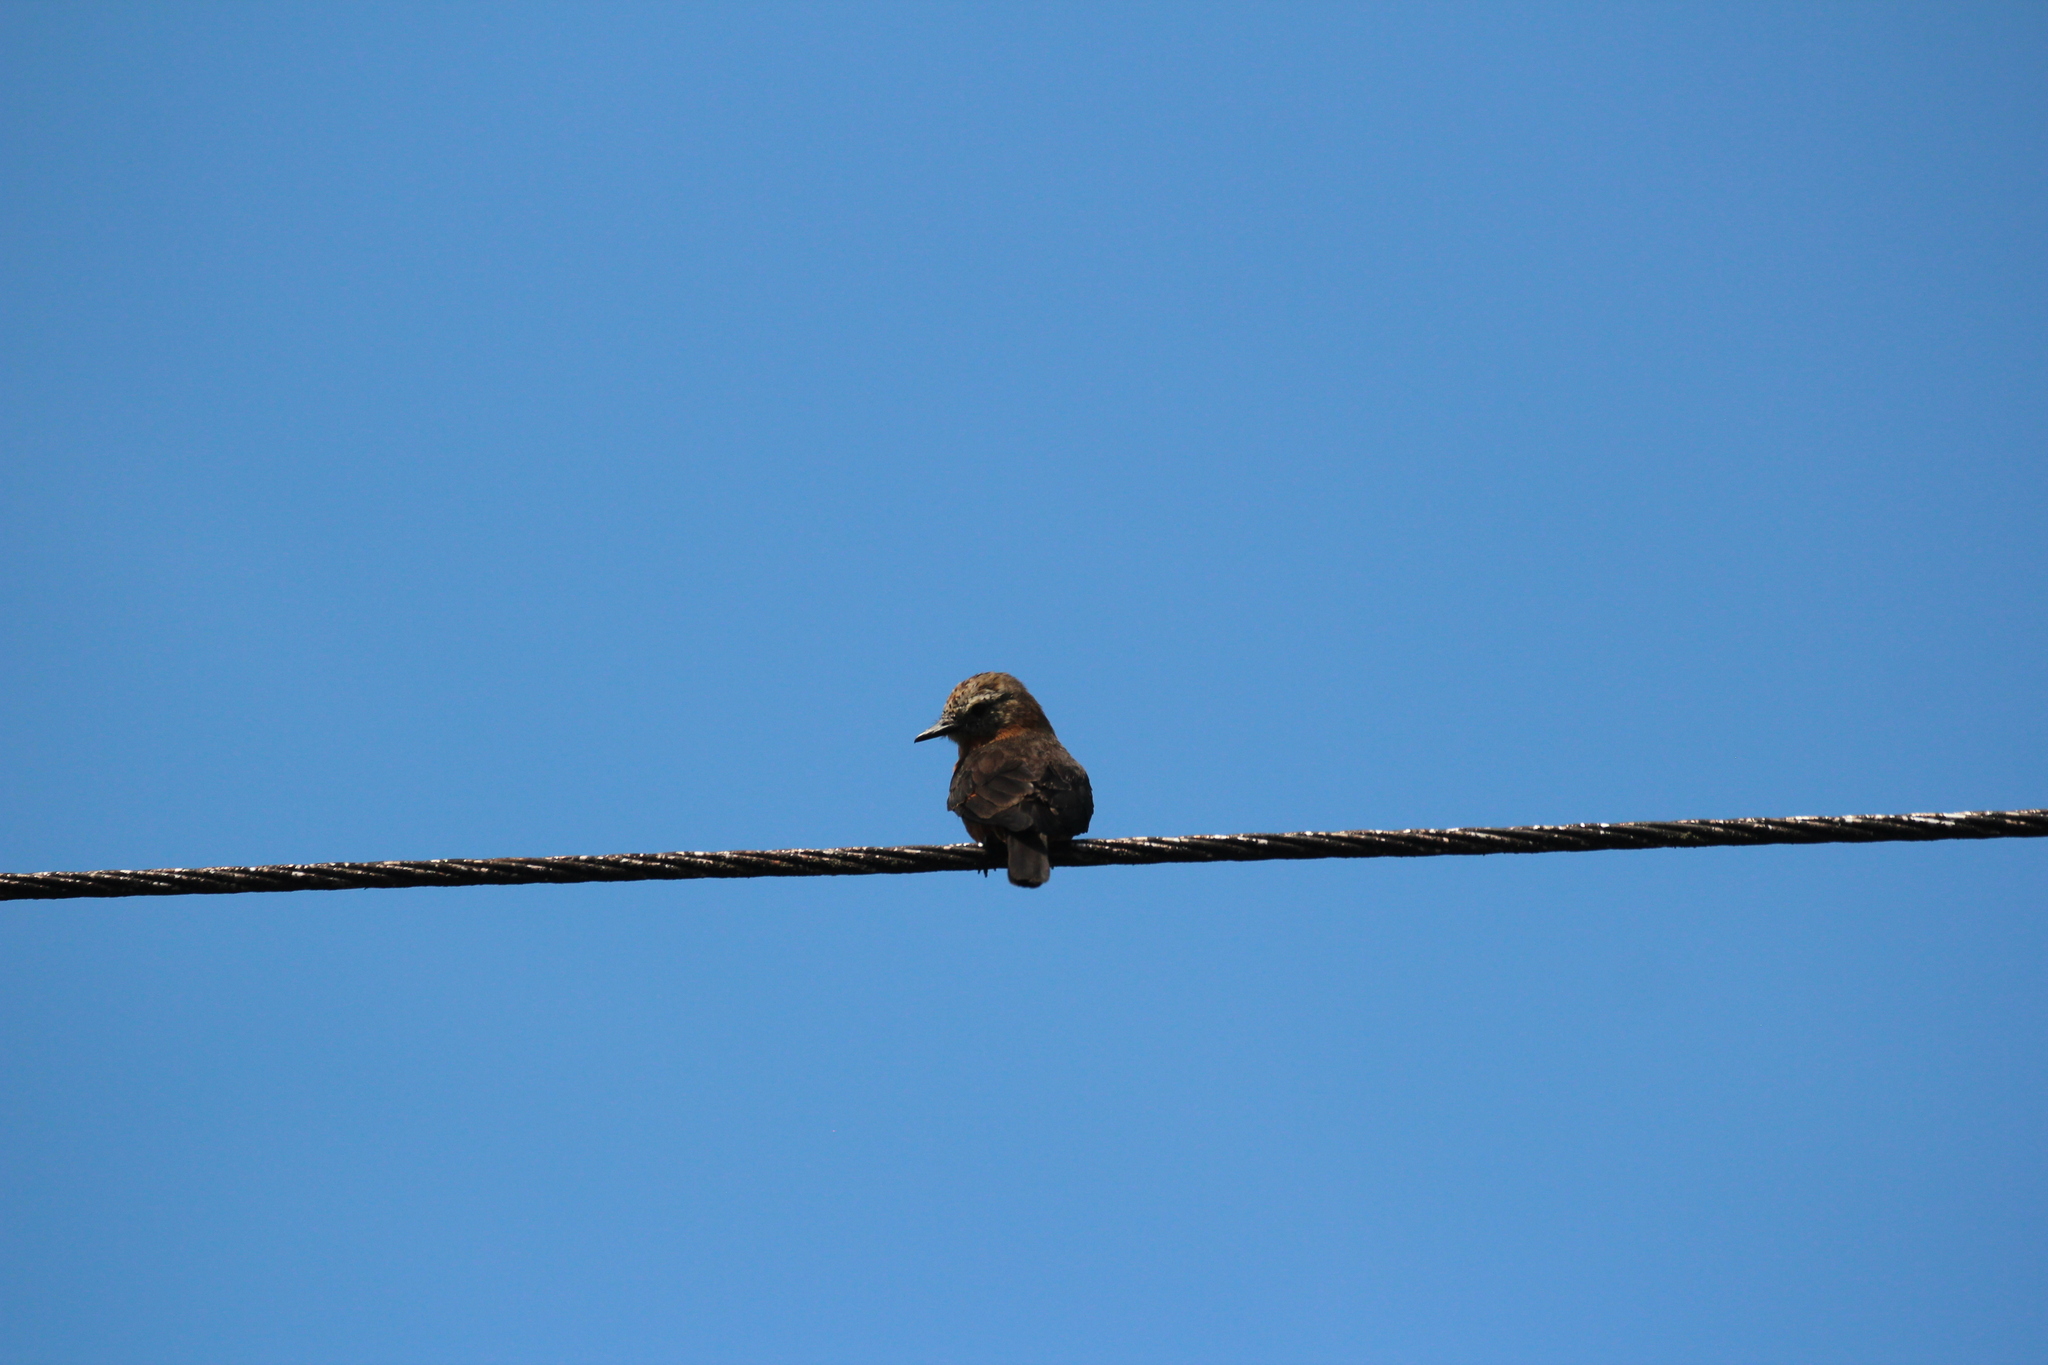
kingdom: Animalia
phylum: Chordata
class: Aves
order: Passeriformes
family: Tyrannidae
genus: Hirundinea
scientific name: Hirundinea ferruginea
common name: Cliff flycatcher
